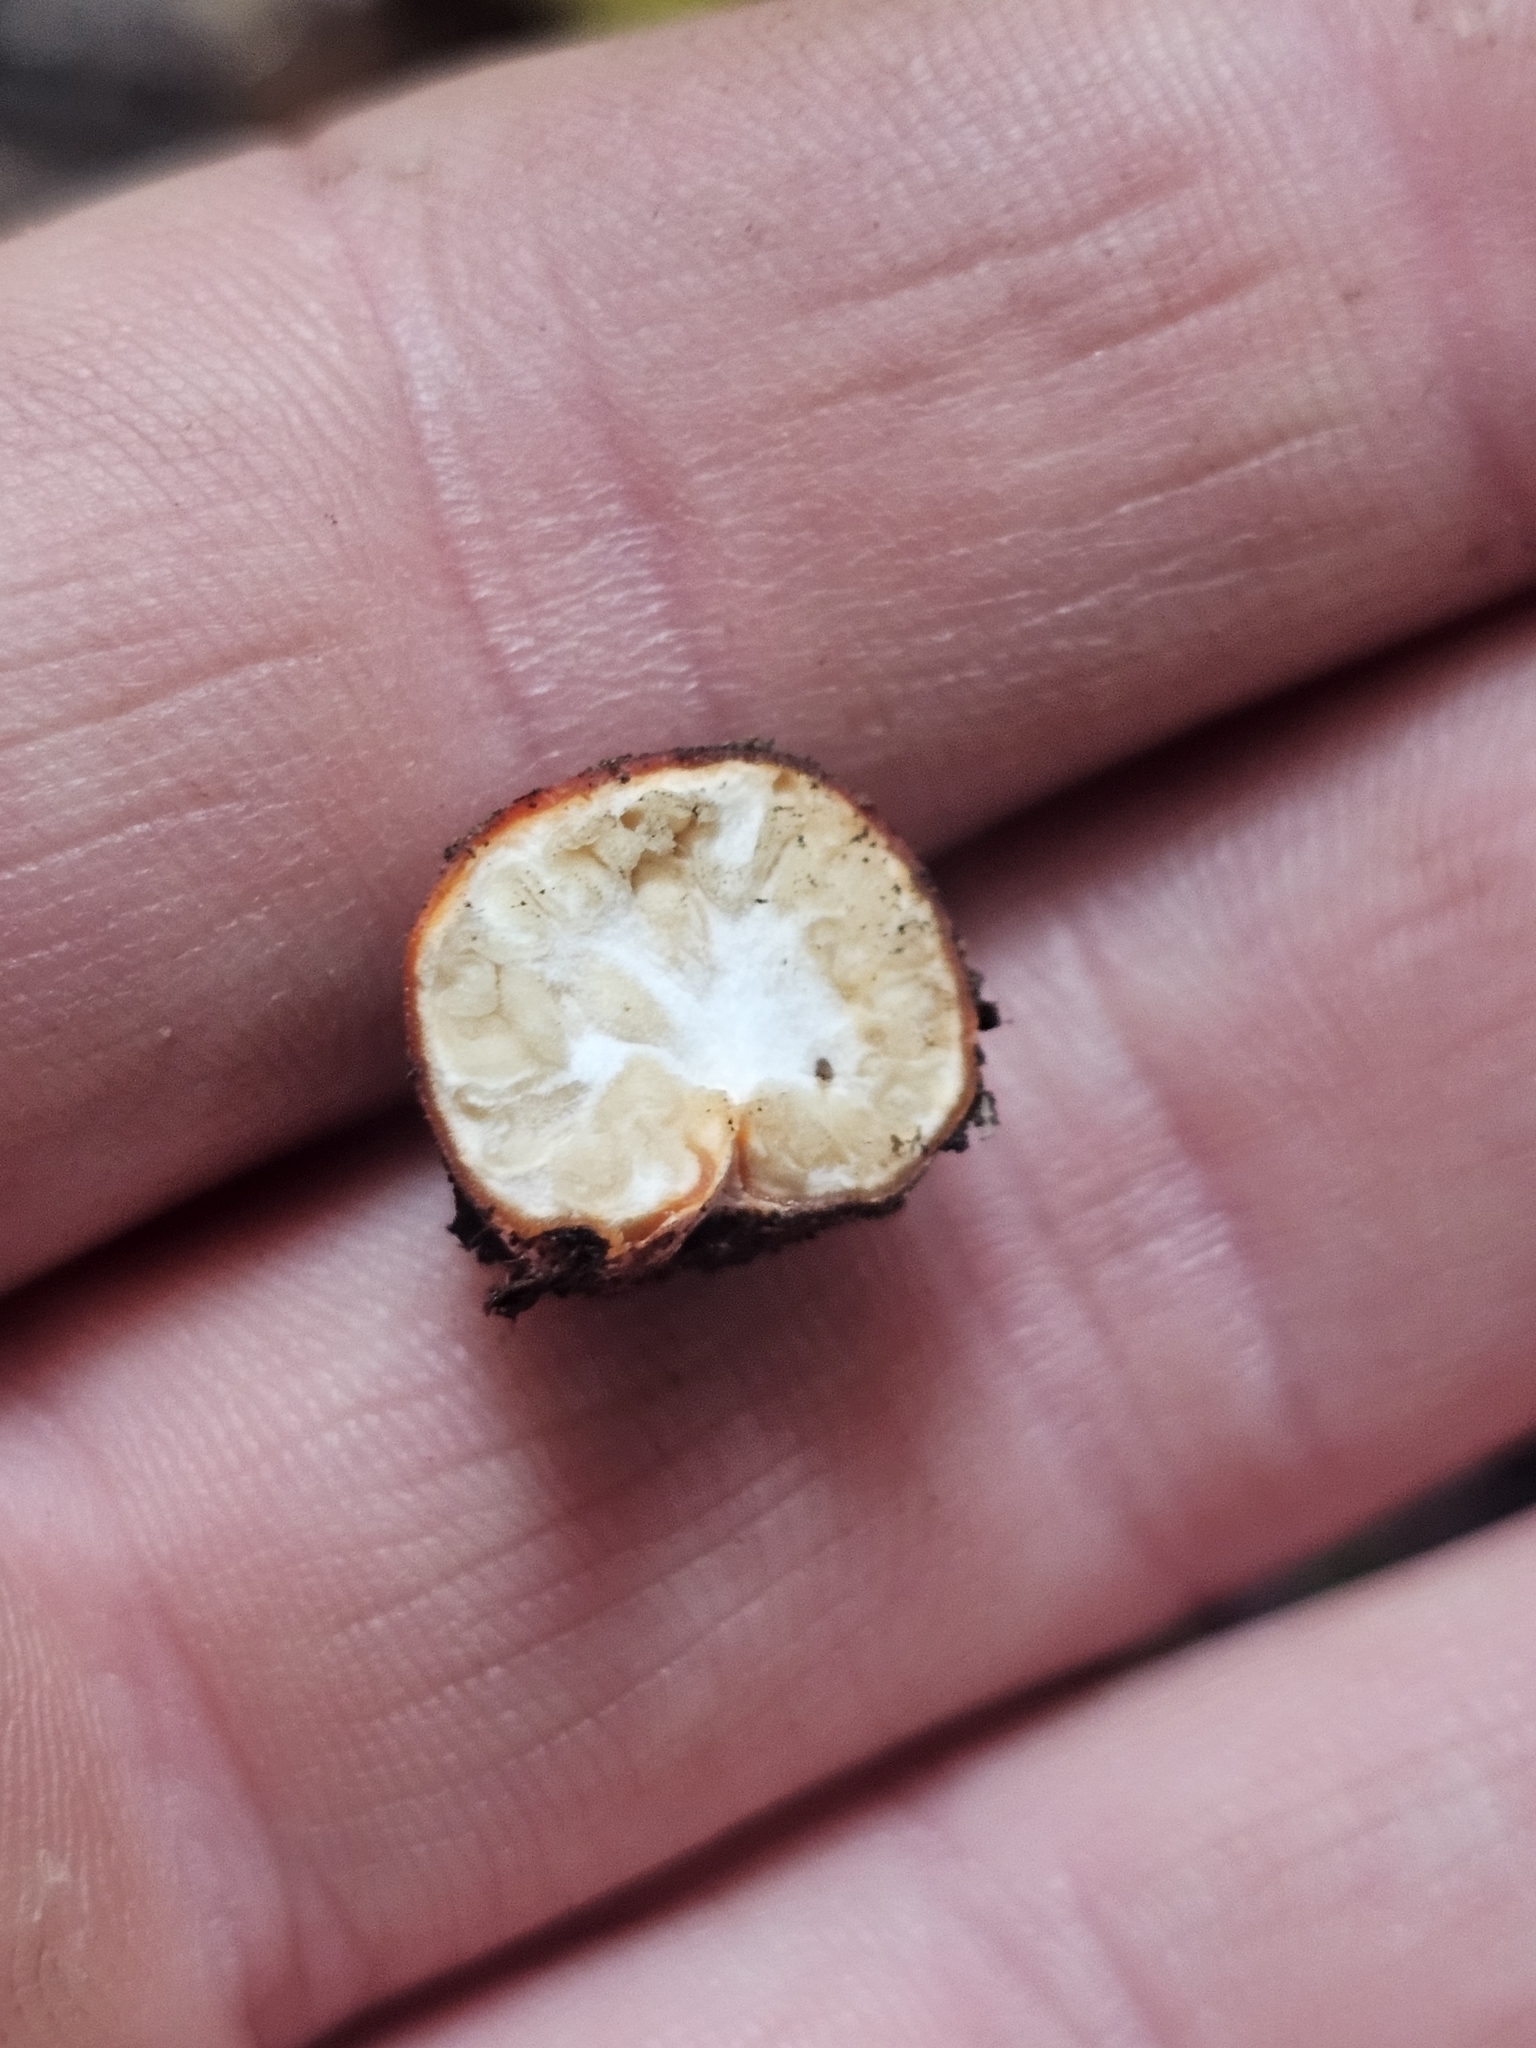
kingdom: Fungi
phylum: Ascomycota
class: Pezizomycetes
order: Pezizales
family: Pyronemataceae
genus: Paurocotylis
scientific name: Paurocotylis pila
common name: Scarlet berry truffle
